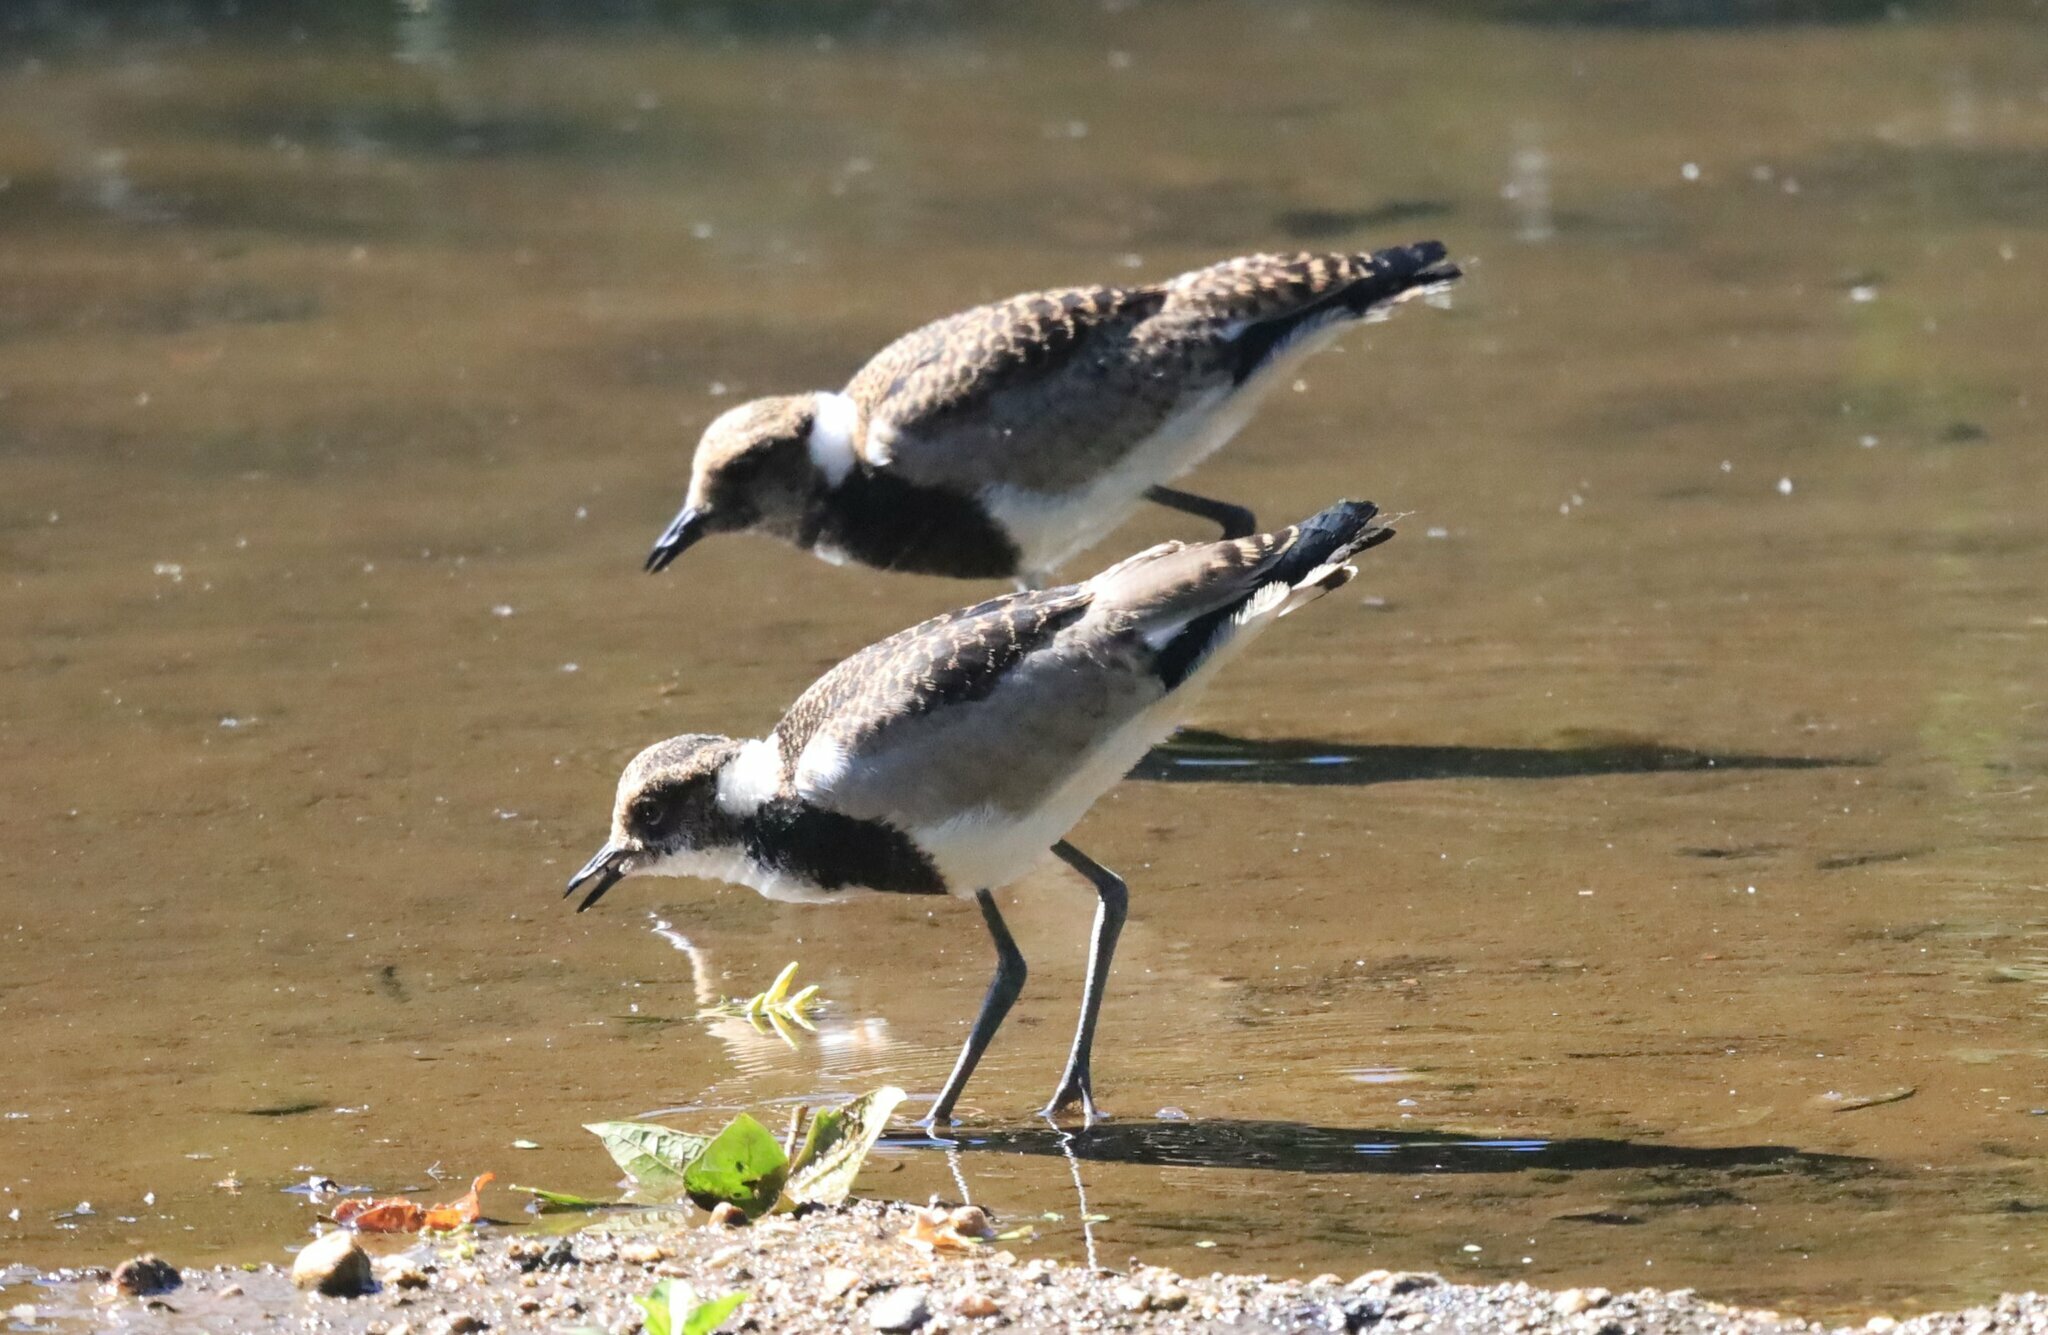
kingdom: Animalia
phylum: Chordata
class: Aves
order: Charadriiformes
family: Charadriidae
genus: Vanellus
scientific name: Vanellus armatus
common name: Blacksmith lapwing
